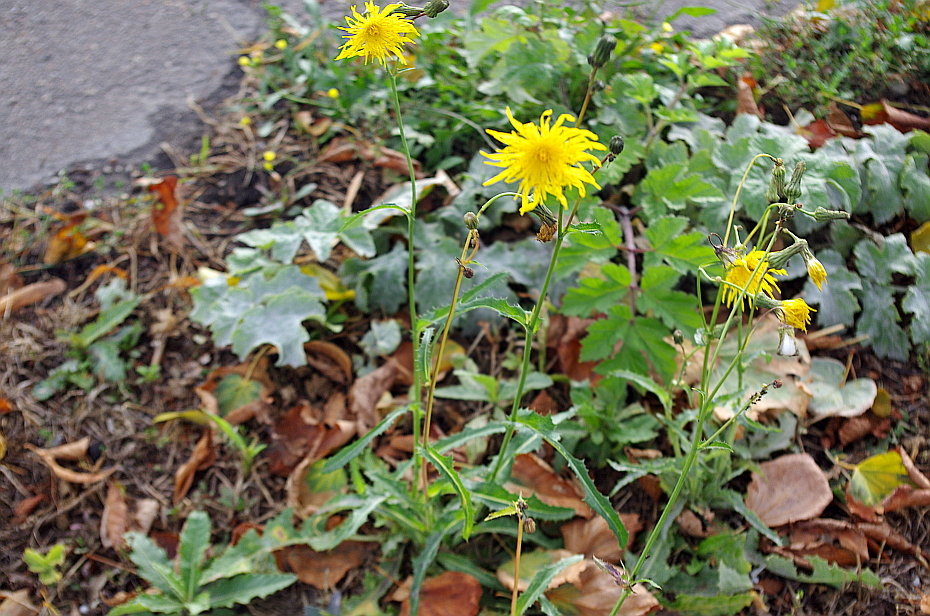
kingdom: Plantae
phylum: Tracheophyta
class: Magnoliopsida
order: Asterales
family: Asteraceae
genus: Sonchus
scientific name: Sonchus arvensis
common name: Perennial sow-thistle
